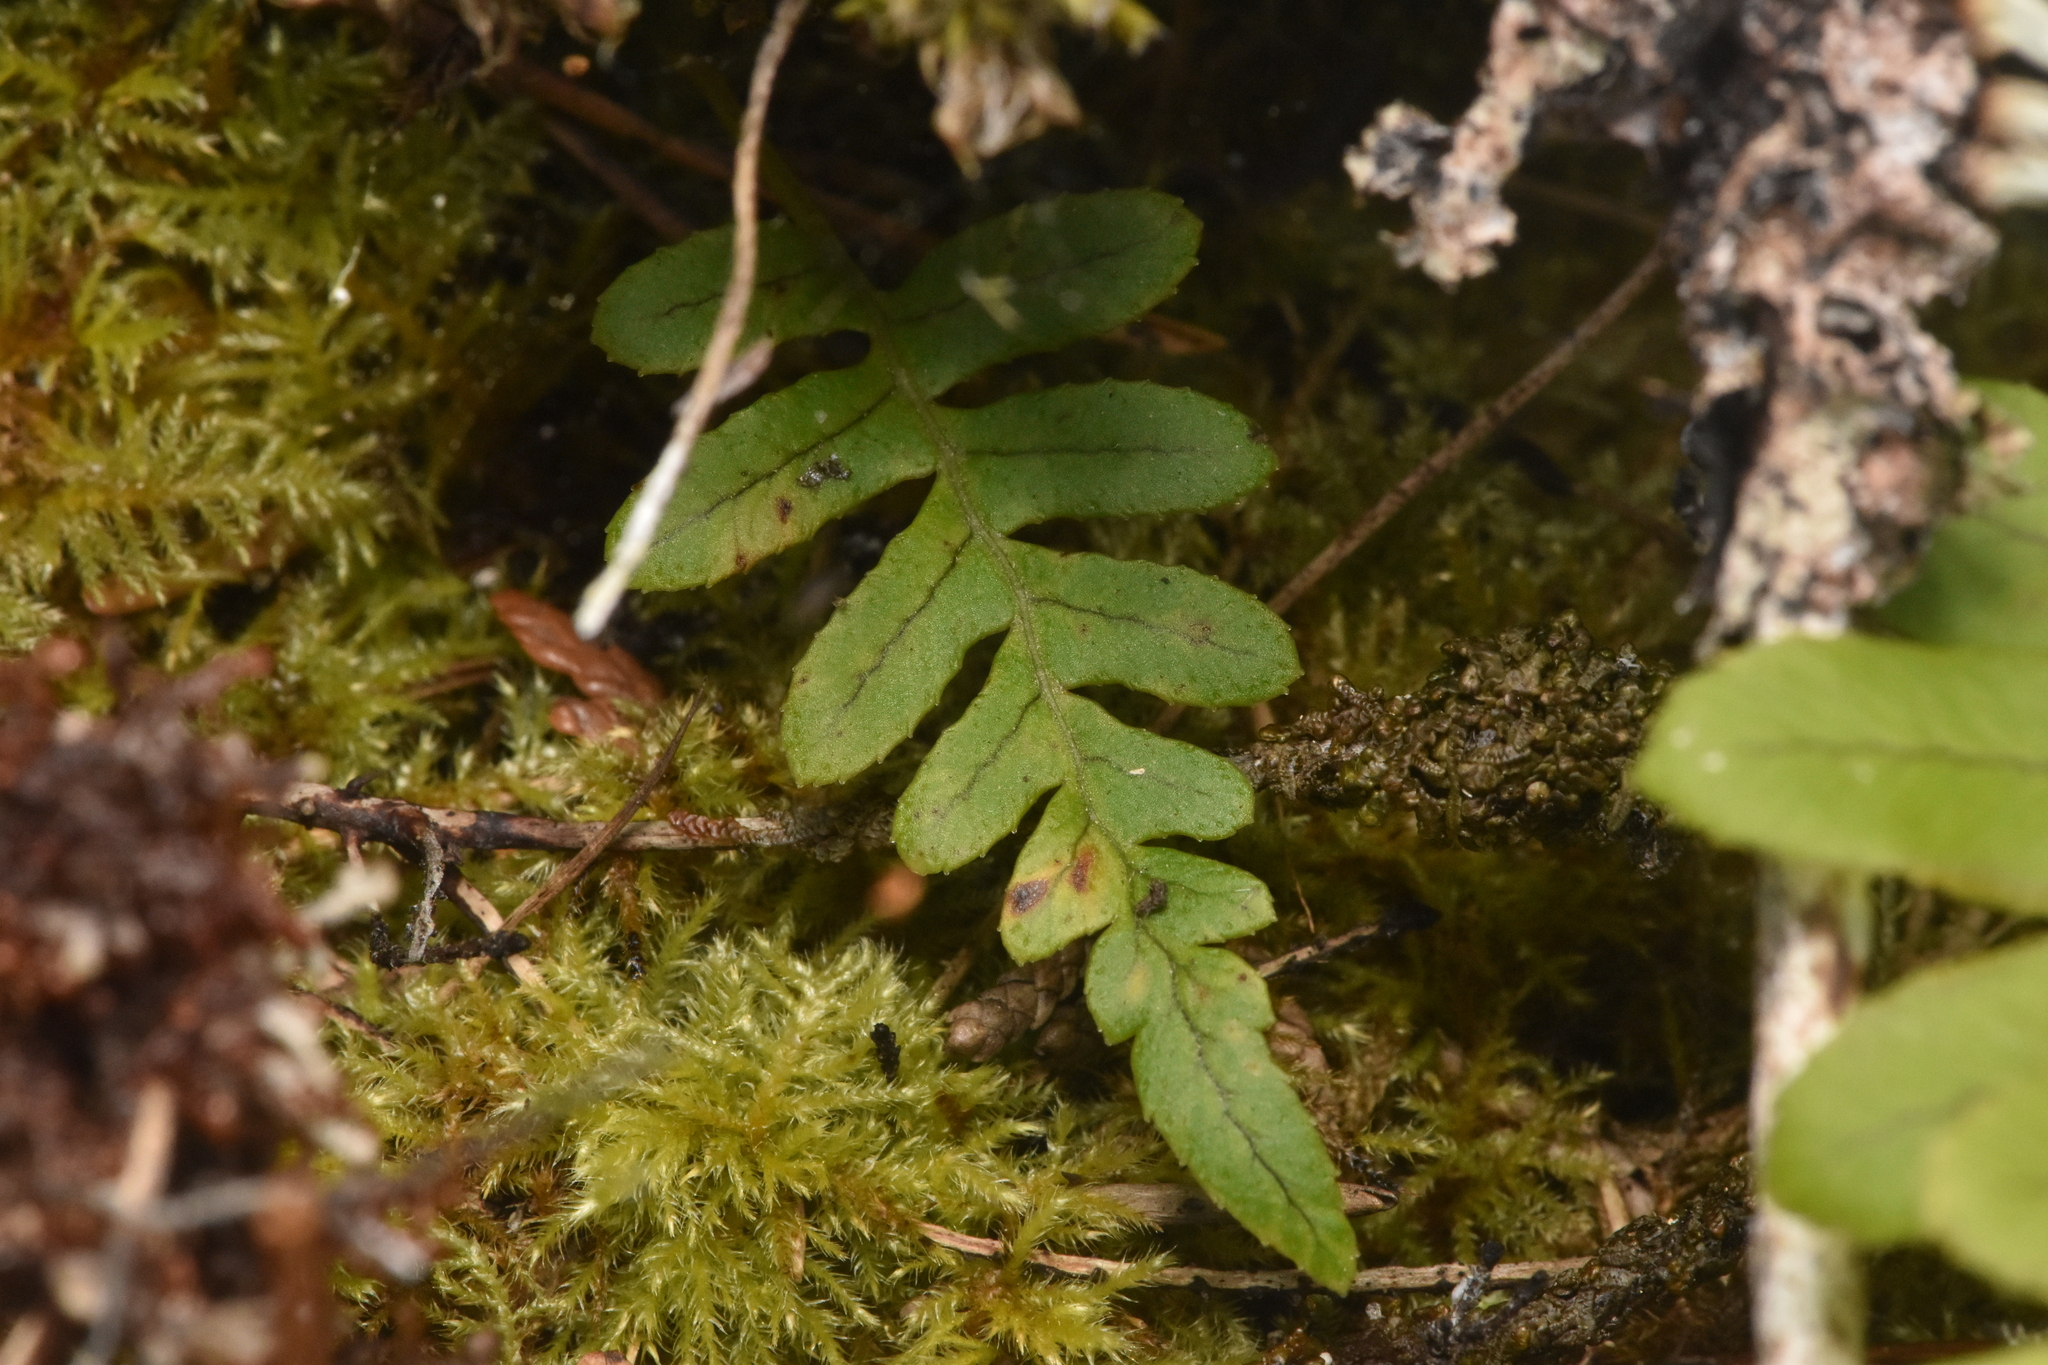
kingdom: Plantae
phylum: Tracheophyta
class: Polypodiopsida
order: Polypodiales
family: Polypodiaceae
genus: Polypodium
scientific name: Polypodium glycyrrhiza
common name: Licorice fern
